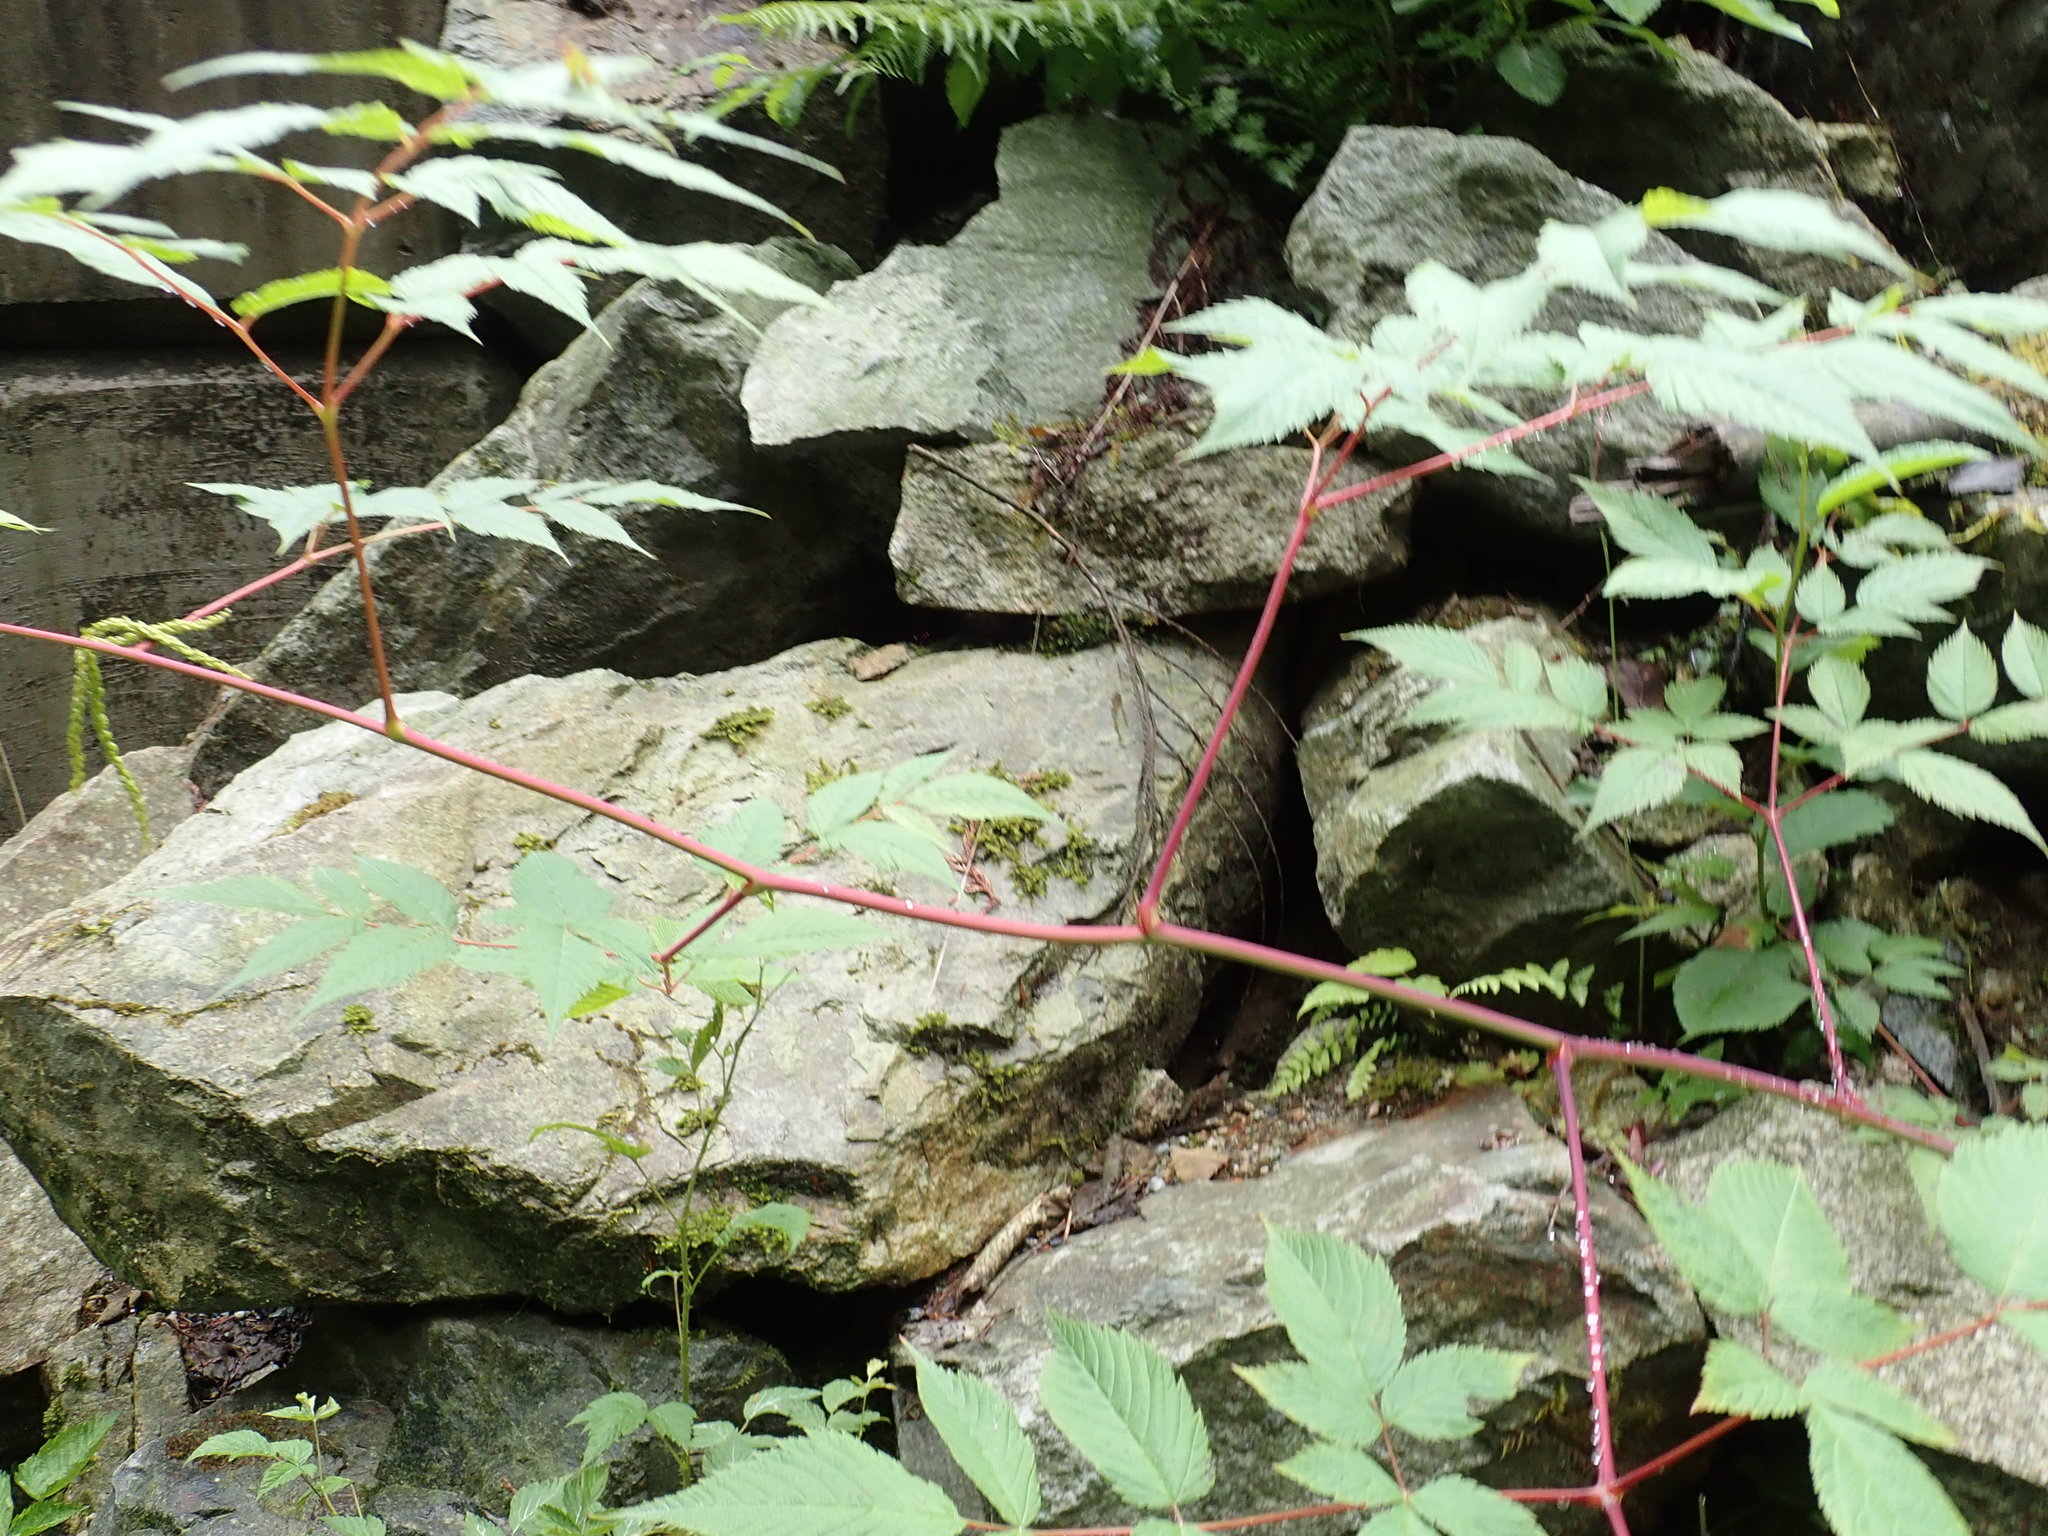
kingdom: Plantae
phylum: Tracheophyta
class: Magnoliopsida
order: Rosales
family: Rosaceae
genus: Aruncus
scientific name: Aruncus dioicus
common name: Buck's-beard
